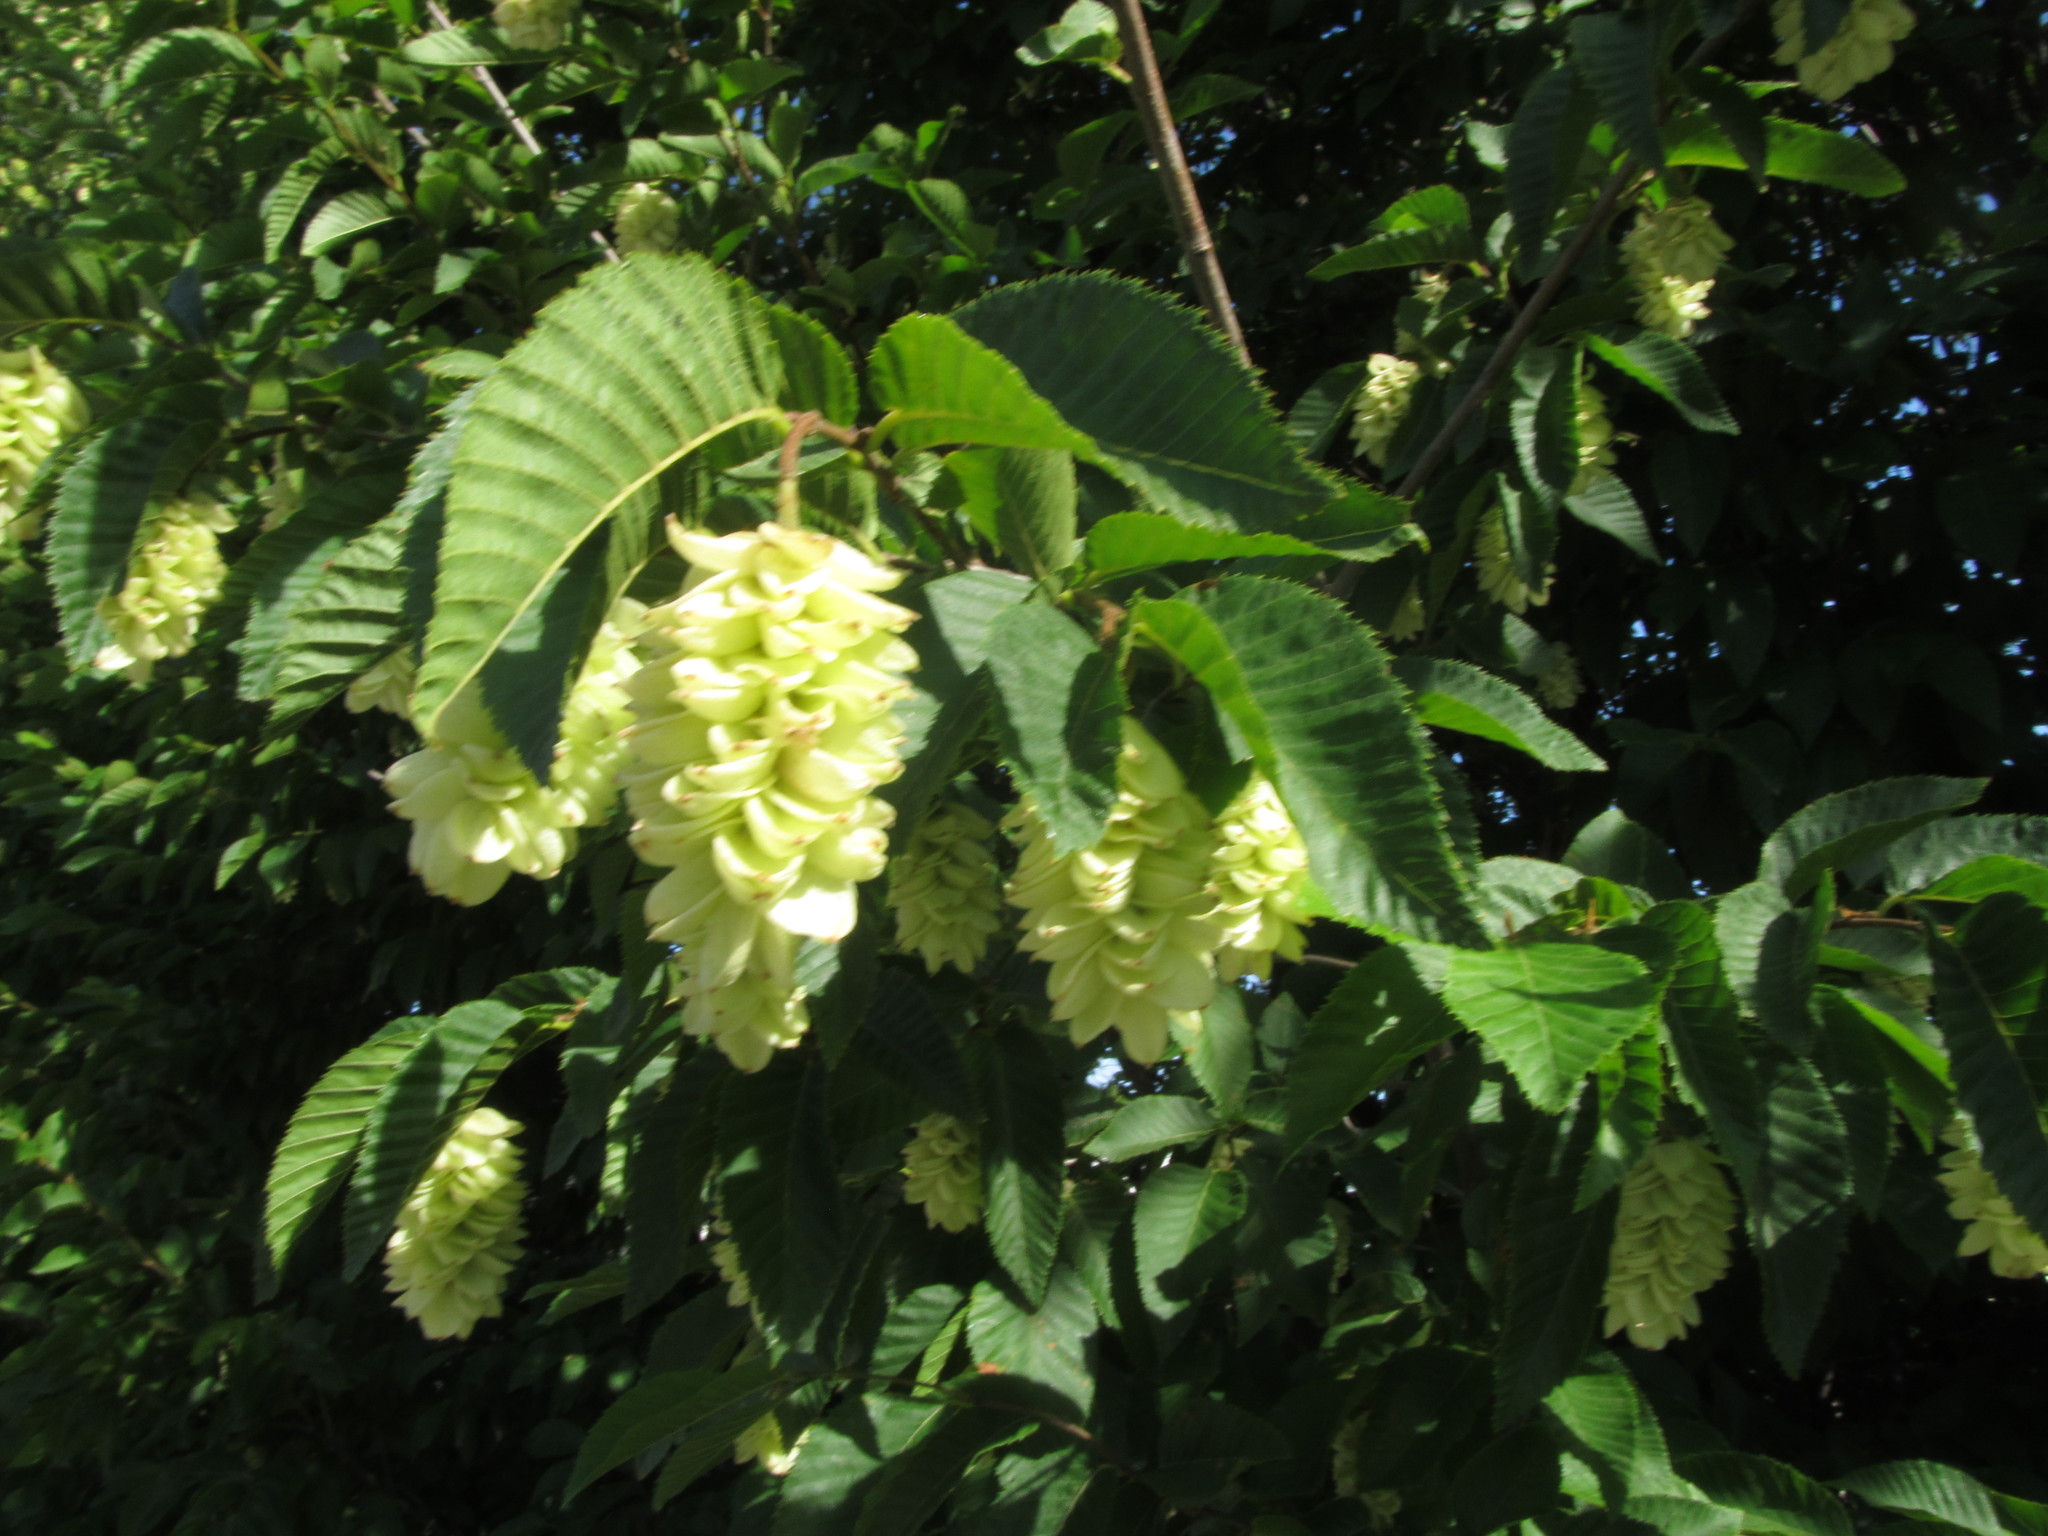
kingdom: Plantae
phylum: Tracheophyta
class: Magnoliopsida
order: Fagales
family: Betulaceae
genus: Ostrya
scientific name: Ostrya carpinifolia
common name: European hop-hornbeam
